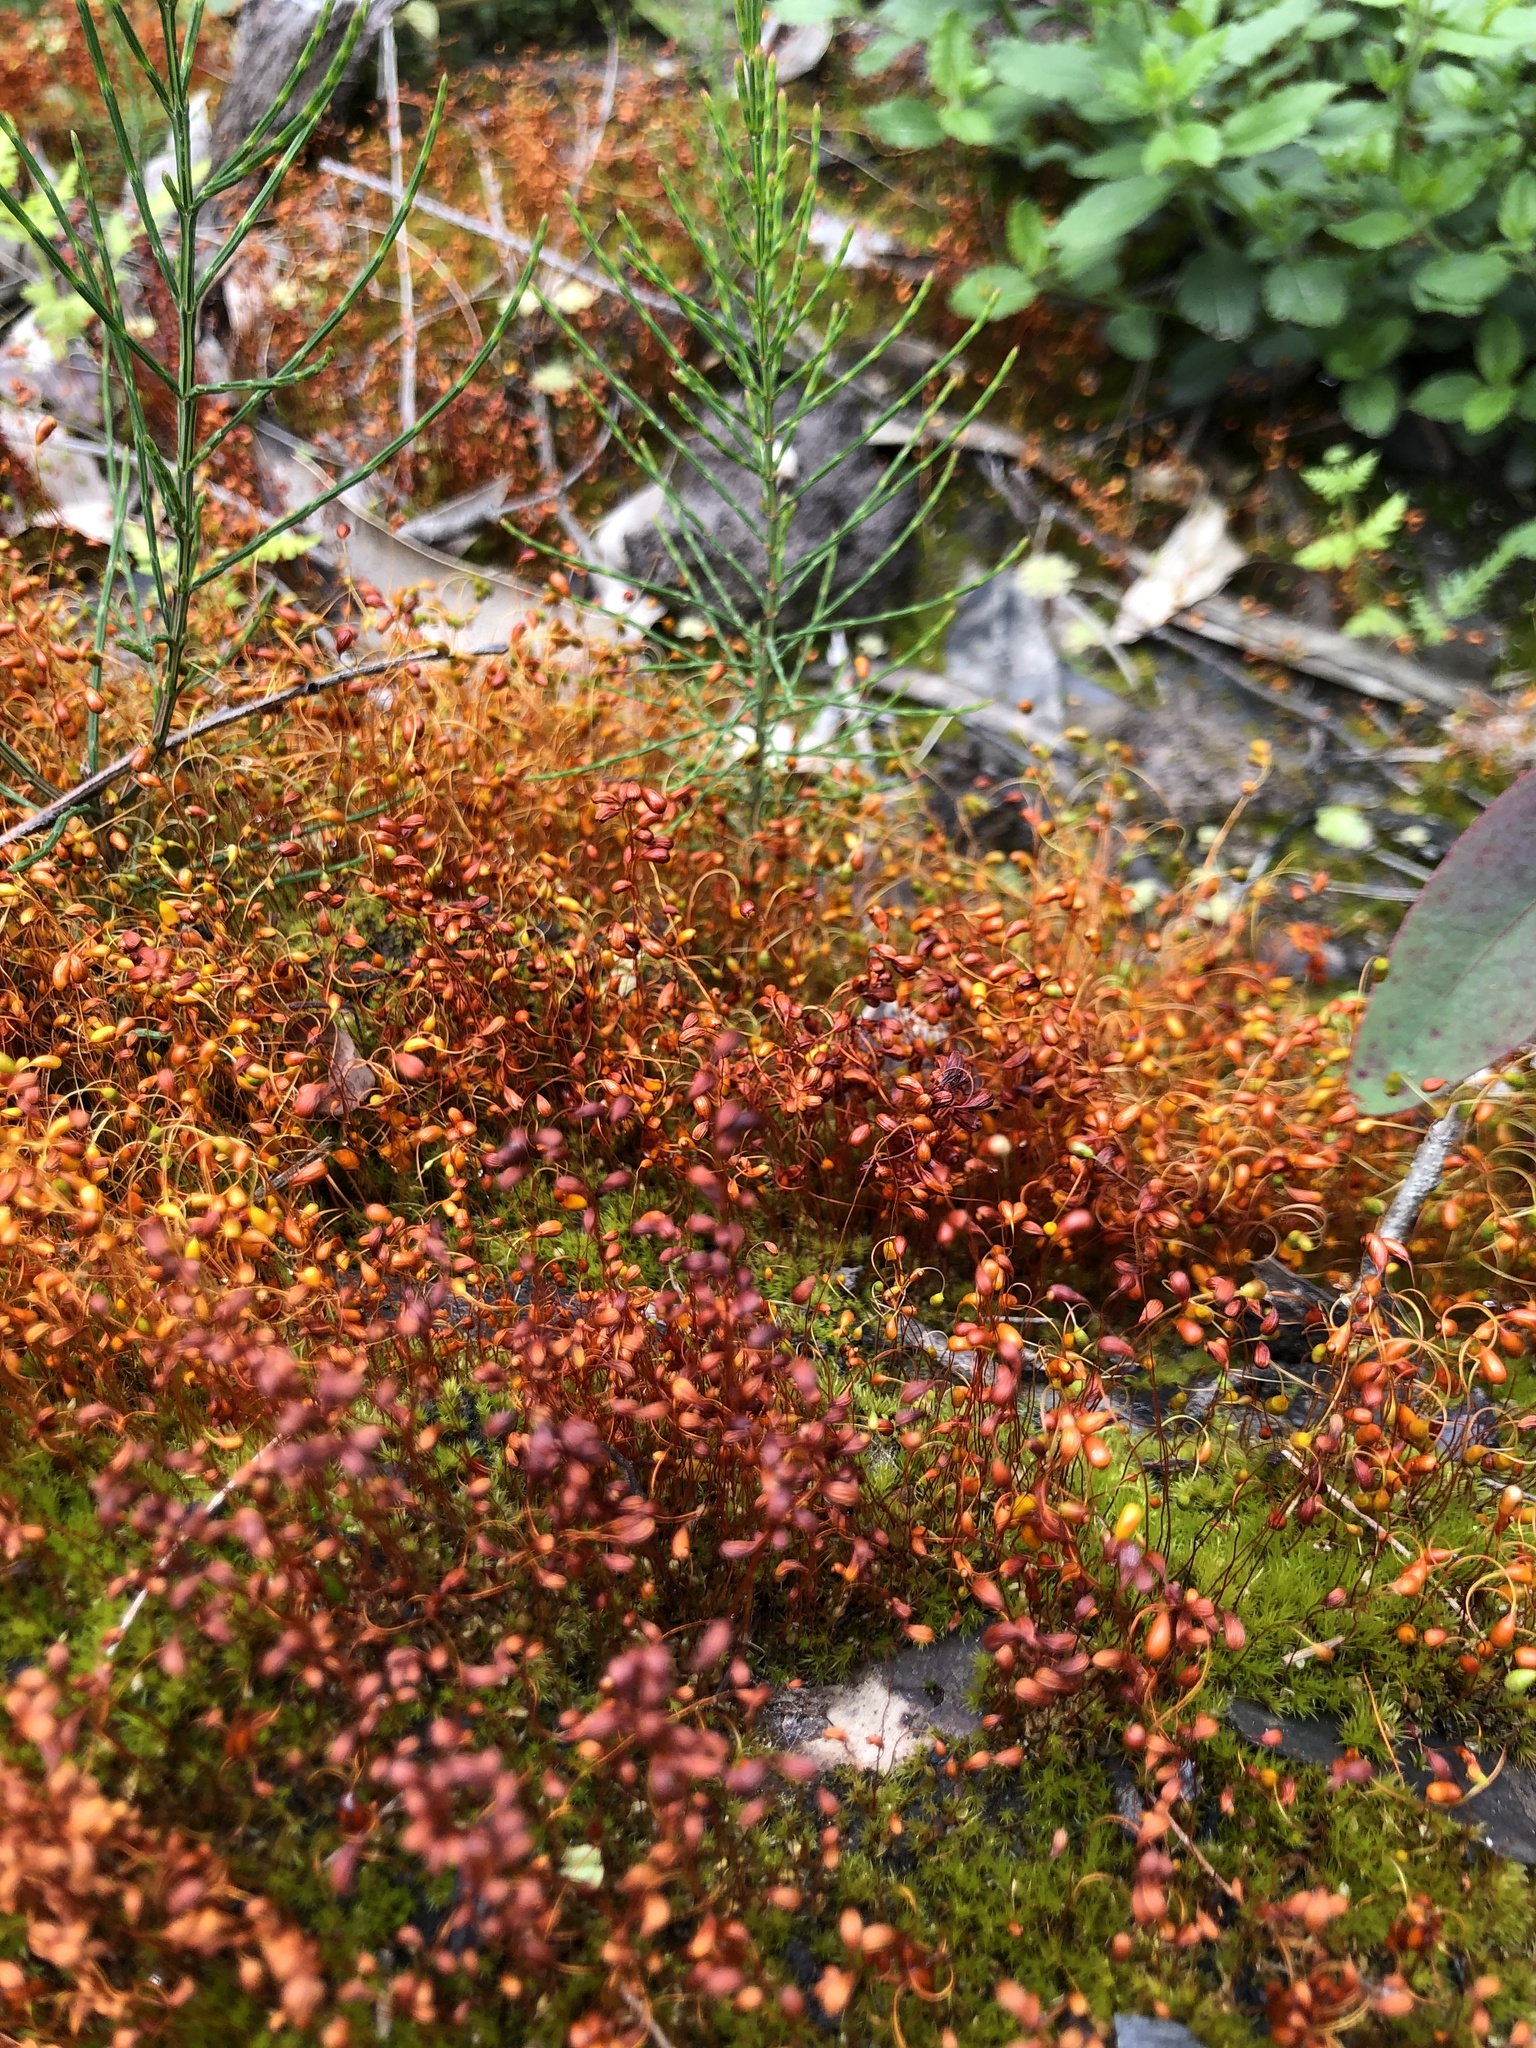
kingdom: Plantae
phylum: Bryophyta
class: Bryopsida
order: Funariales
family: Funariaceae
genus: Funaria
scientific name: Funaria hygrometrica
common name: Common cord moss
